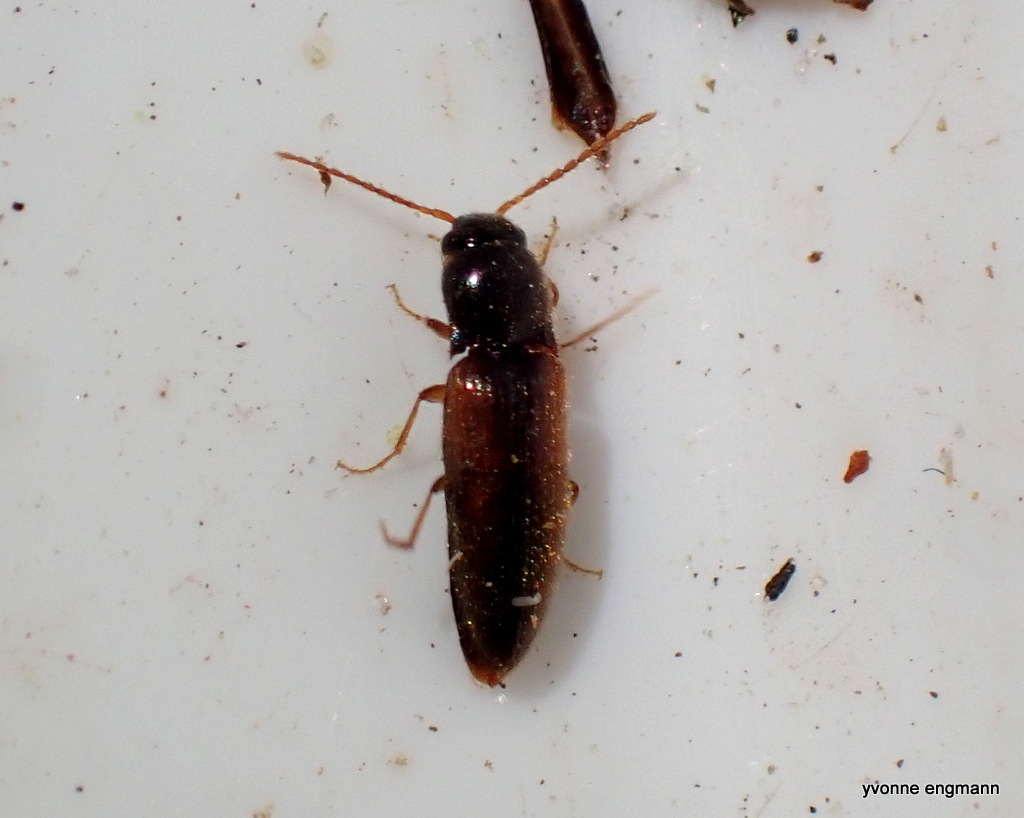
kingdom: Animalia
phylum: Arthropoda
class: Insecta
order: Coleoptera
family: Elateridae
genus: Adrastus
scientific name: Adrastus pallens
